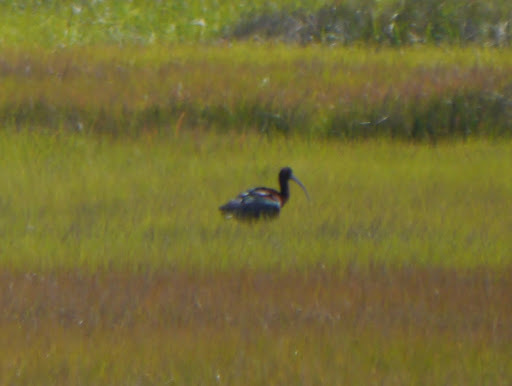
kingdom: Animalia
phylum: Chordata
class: Aves
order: Pelecaniformes
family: Threskiornithidae
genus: Plegadis
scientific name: Plegadis falcinellus
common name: Glossy ibis
